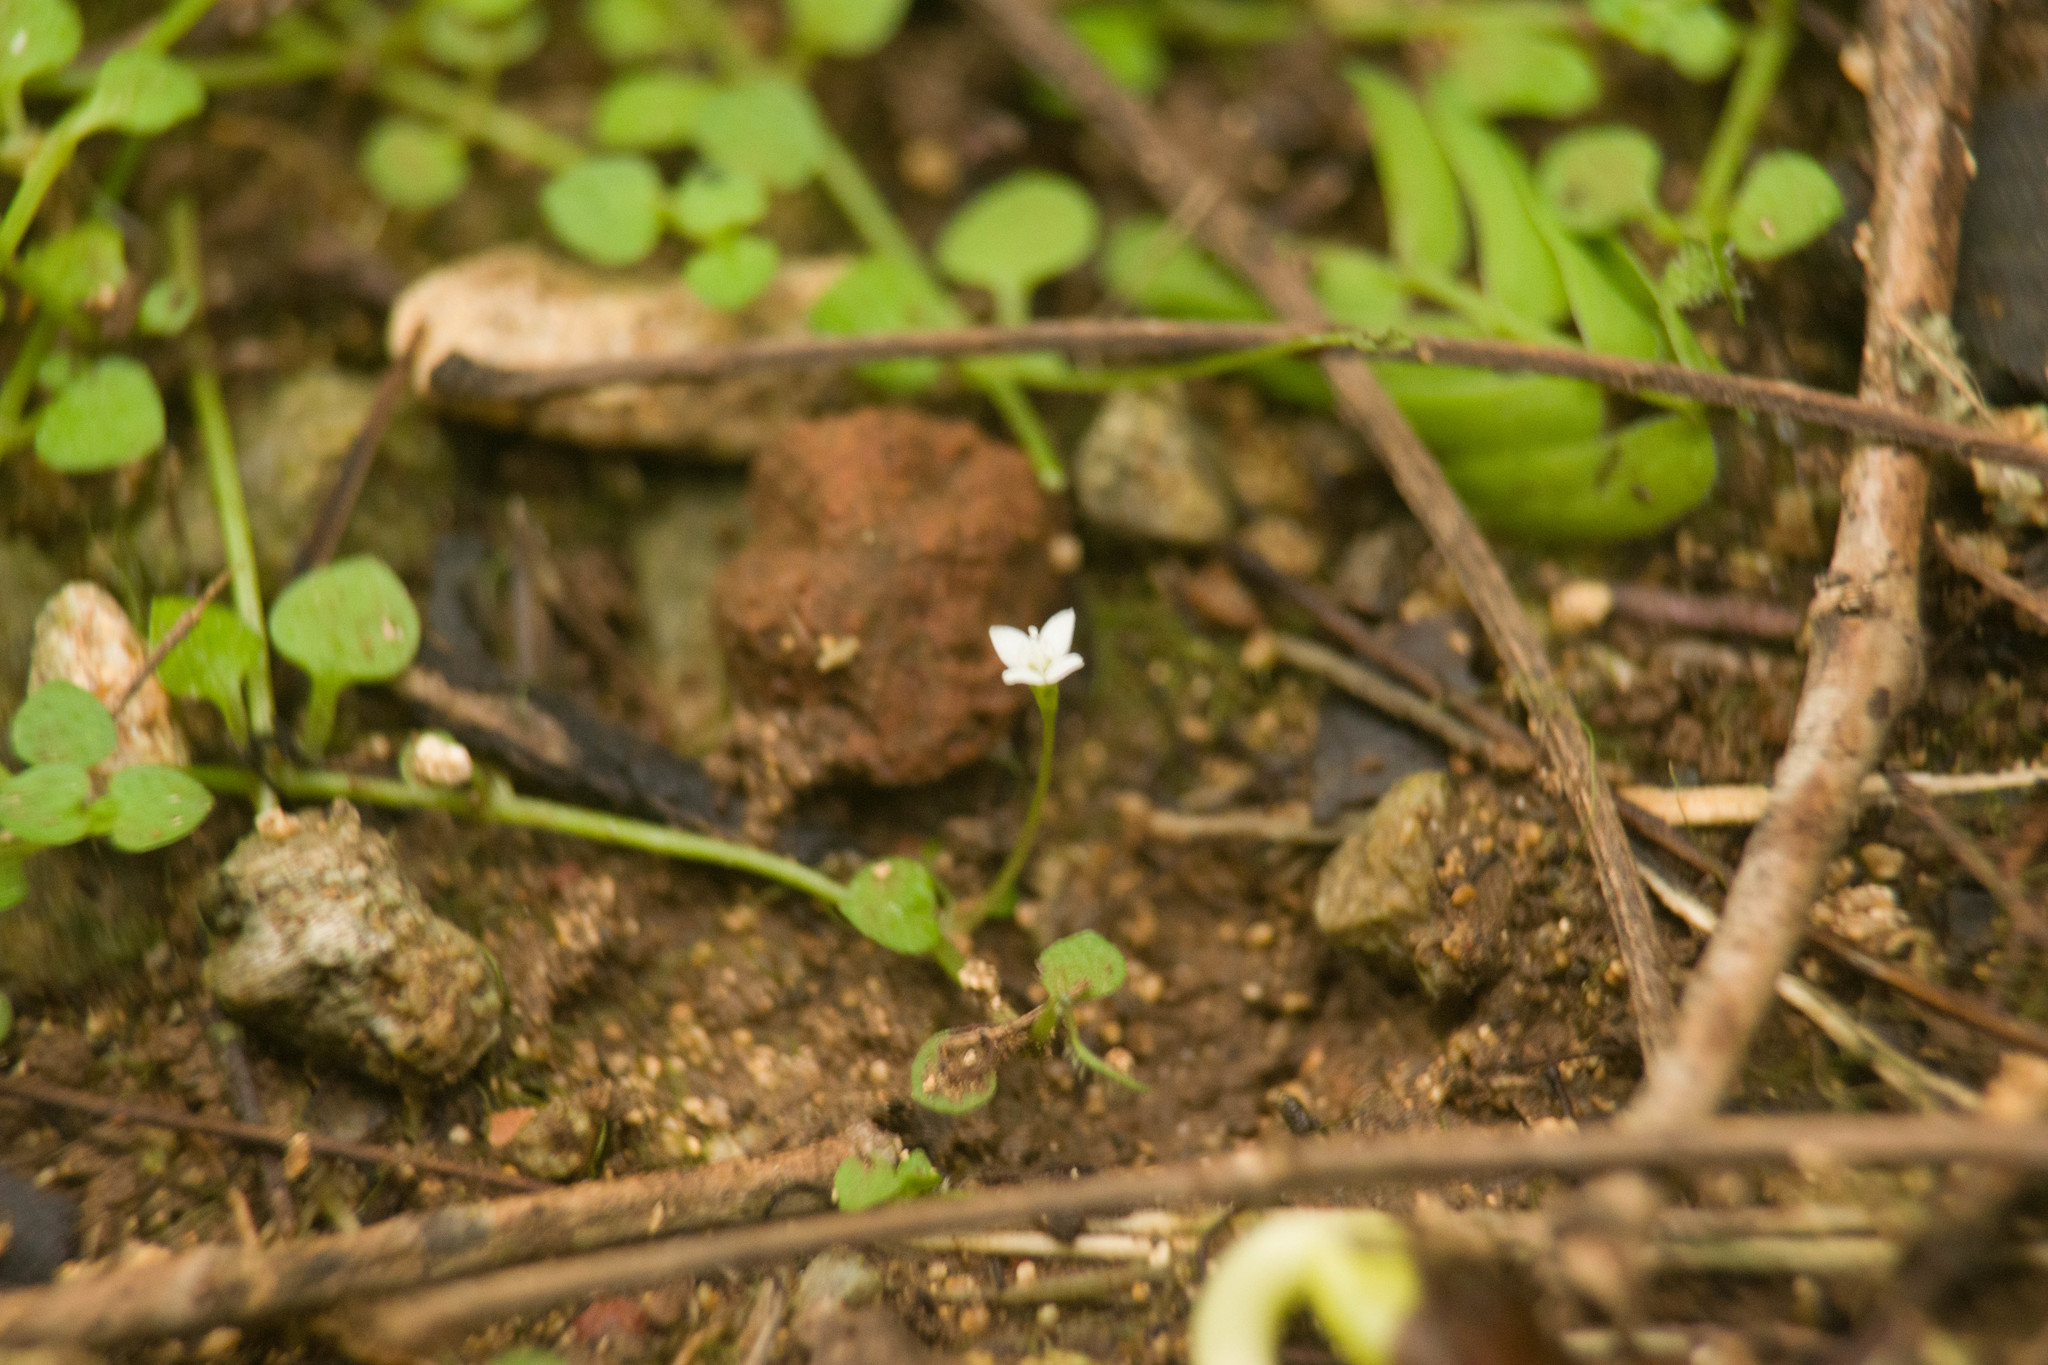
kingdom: Plantae
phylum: Tracheophyta
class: Magnoliopsida
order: Gentianales
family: Rubiaceae
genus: Oldenlandiopsis
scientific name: Oldenlandiopsis callitrichoides
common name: Creeping-bluet
